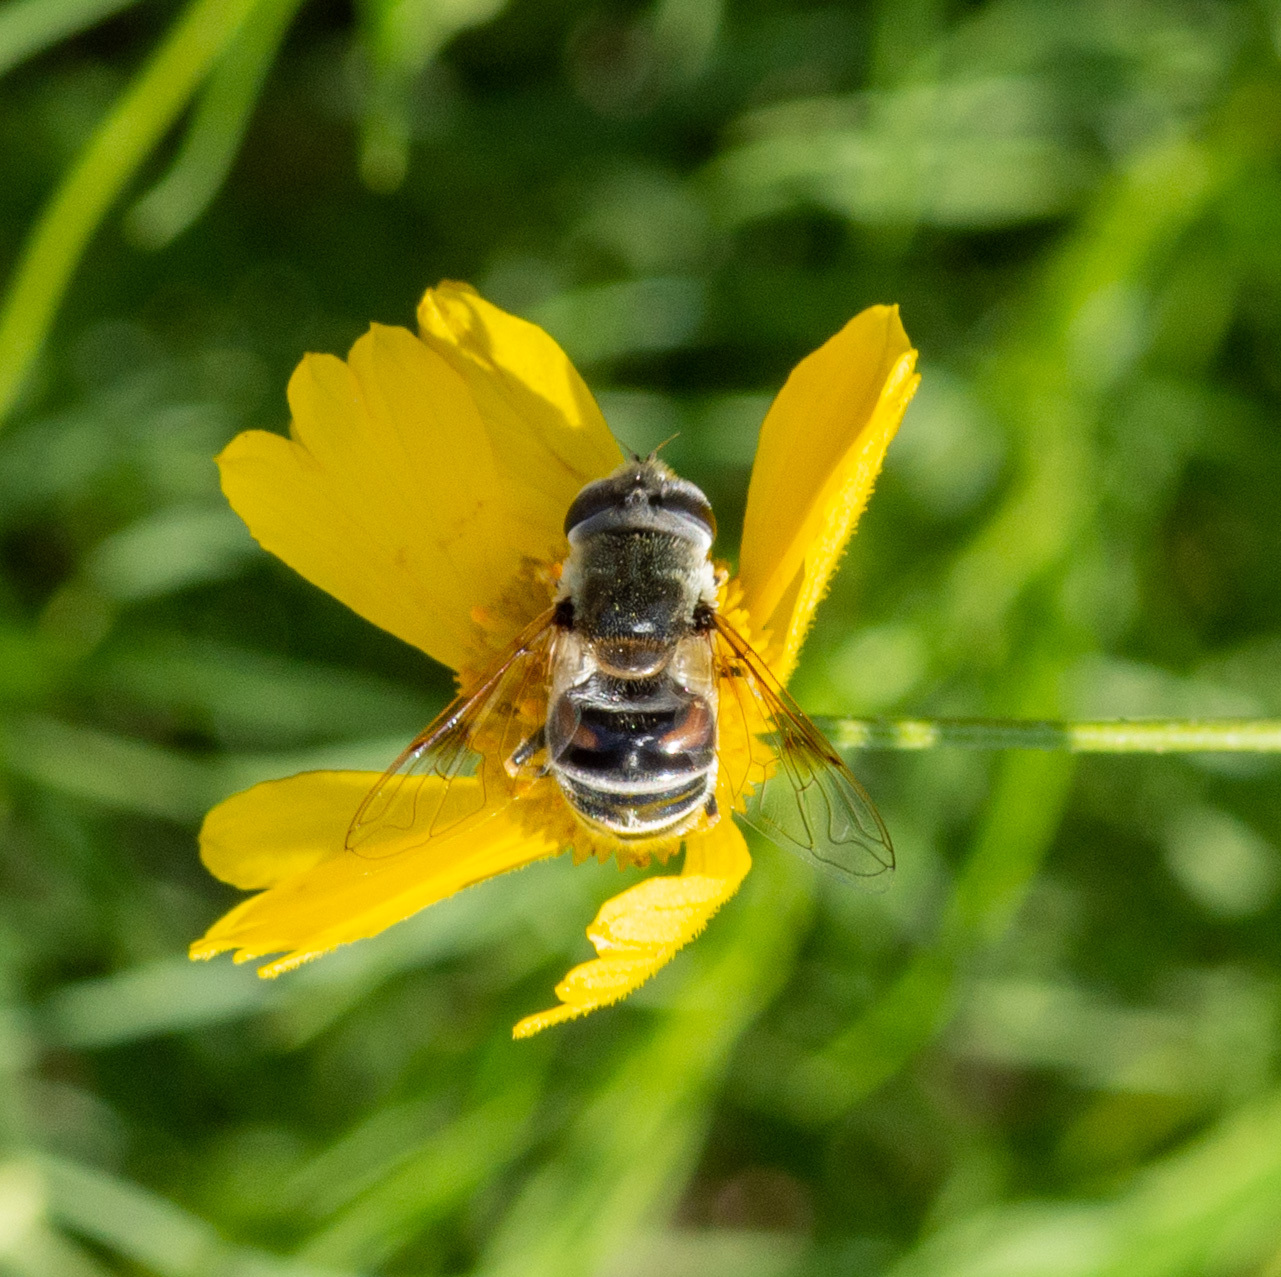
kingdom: Animalia
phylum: Arthropoda
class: Insecta
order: Diptera
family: Syrphidae
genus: Eristalis
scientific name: Eristalis stipator
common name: Yellow-shouldered drone fly
